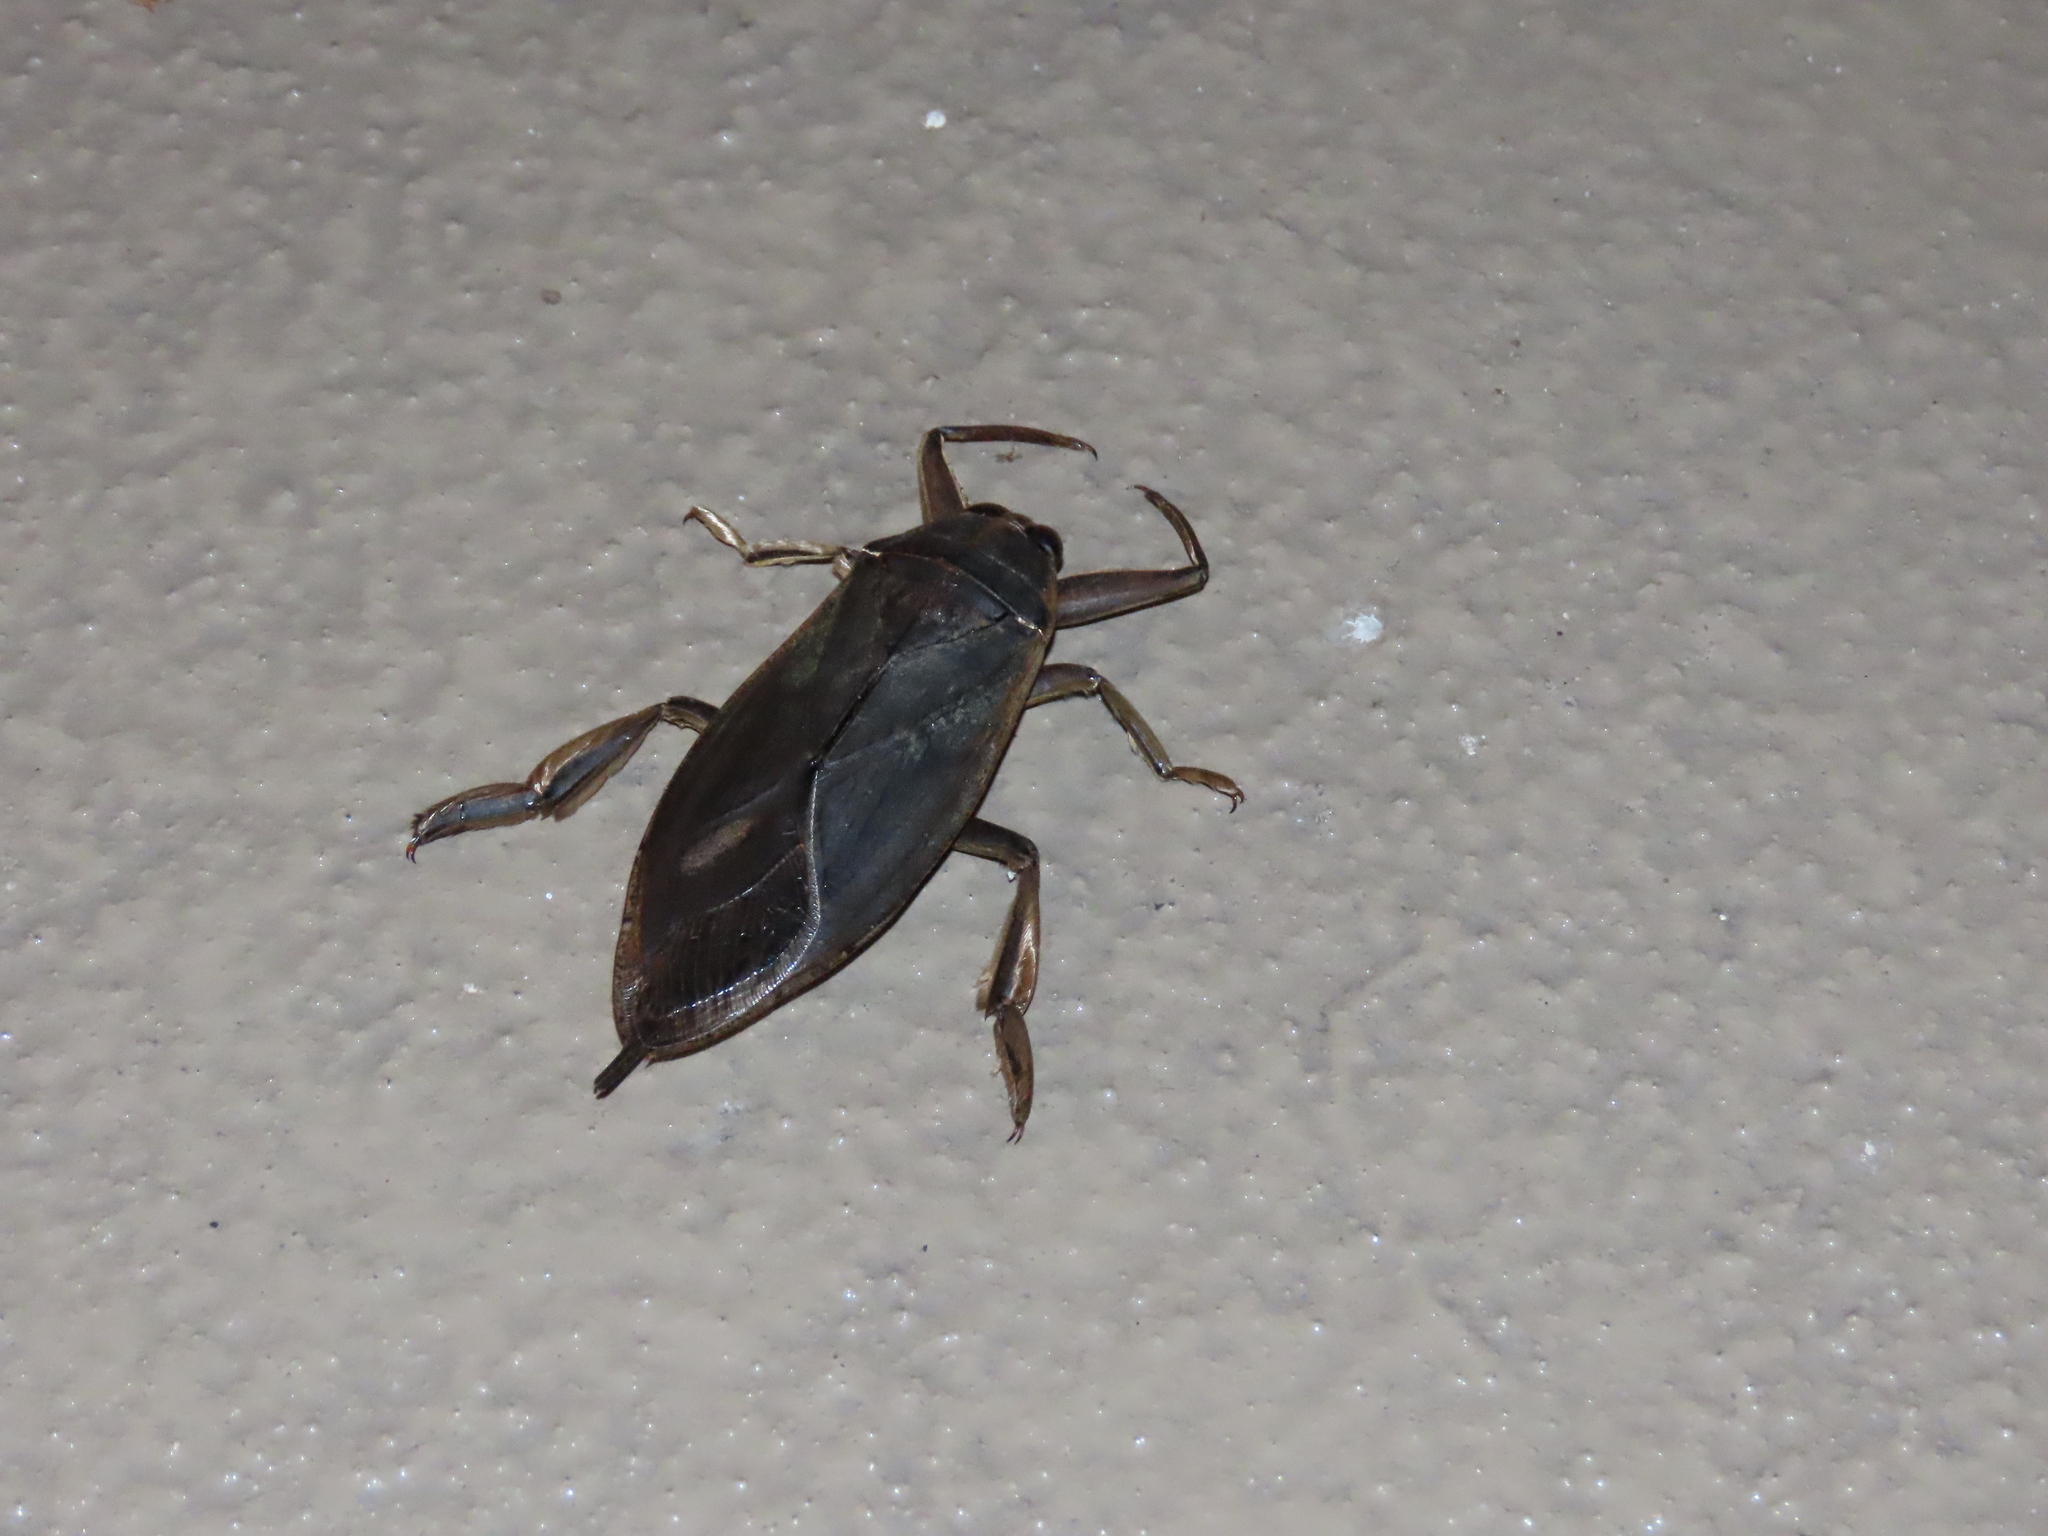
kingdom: Animalia
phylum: Arthropoda
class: Insecta
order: Hemiptera
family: Belostomatidae
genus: Benacus
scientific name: Benacus griseus
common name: Eastern toe-biter
